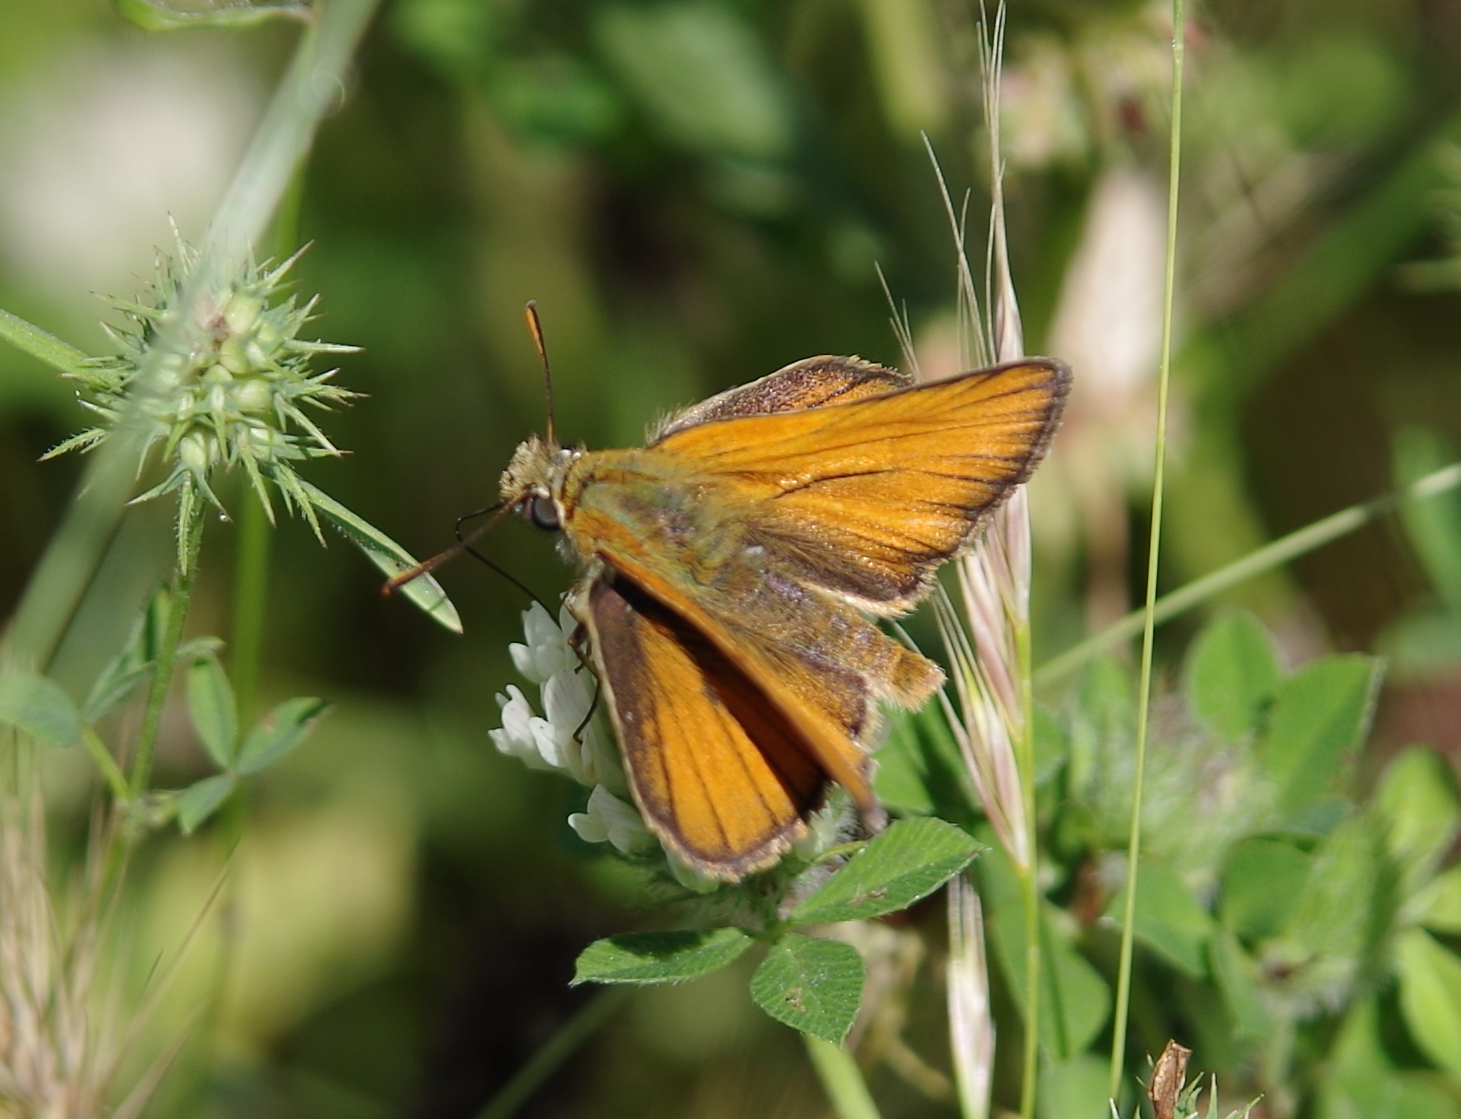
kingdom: Animalia
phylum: Arthropoda
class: Insecta
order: Lepidoptera
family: Hesperiidae
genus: Thymelicus
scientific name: Thymelicus sylvestris
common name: Small skipper
